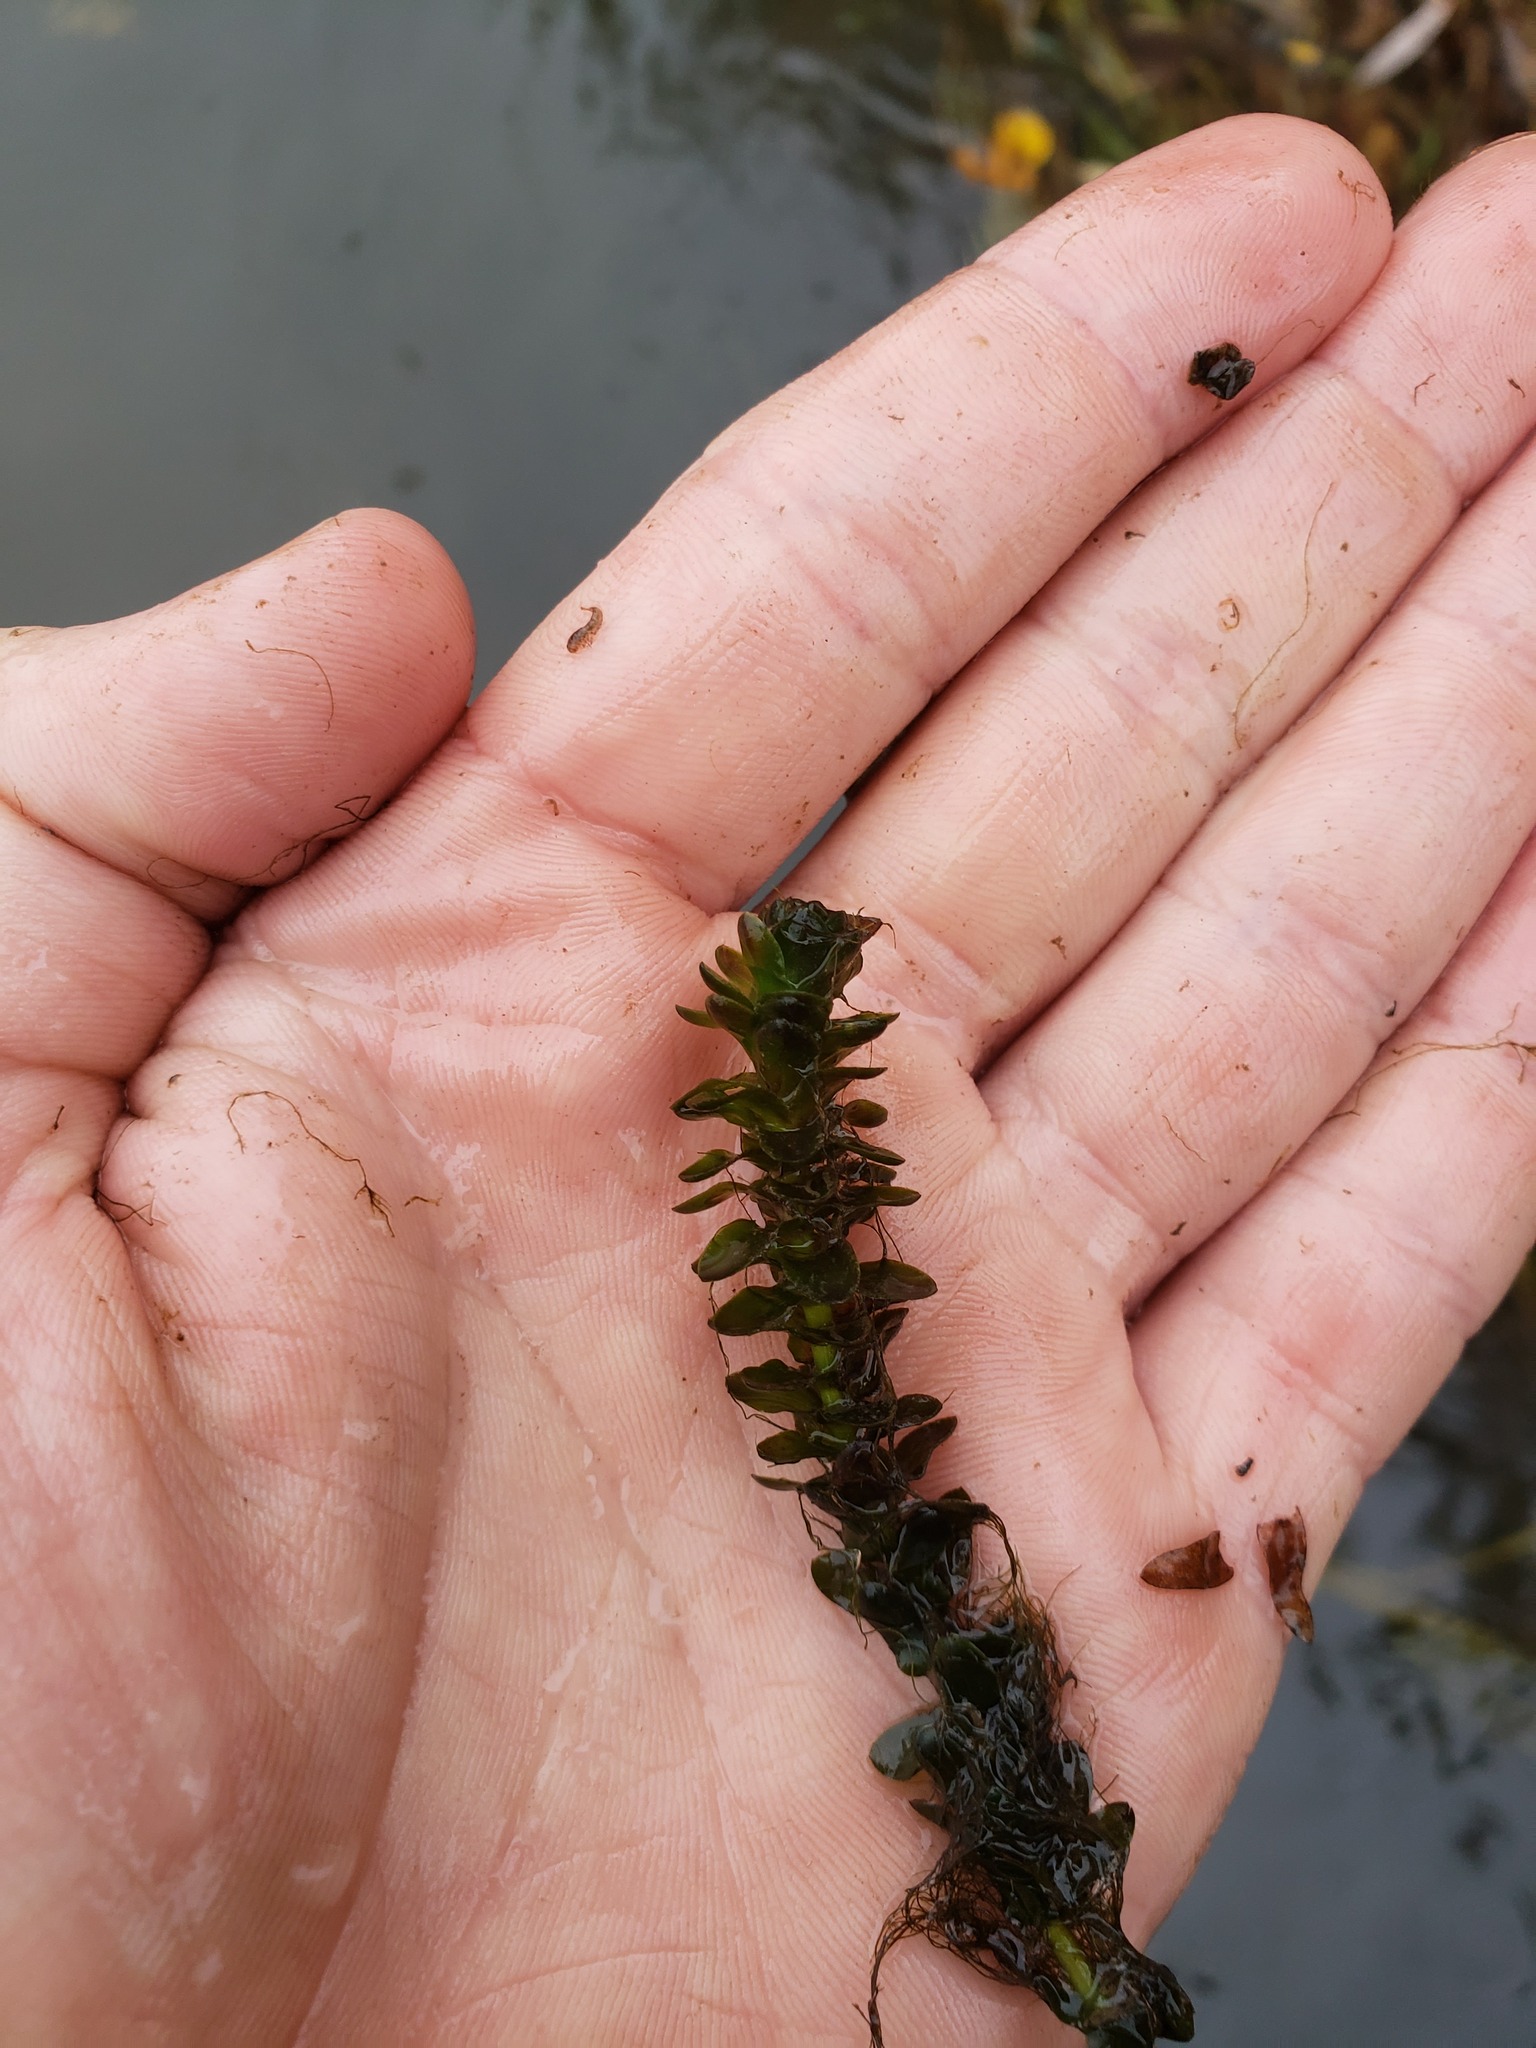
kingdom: Plantae
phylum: Tracheophyta
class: Liliopsida
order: Alismatales
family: Hydrocharitaceae
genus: Elodea
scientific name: Elodea canadensis
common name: Canadian waterweed
